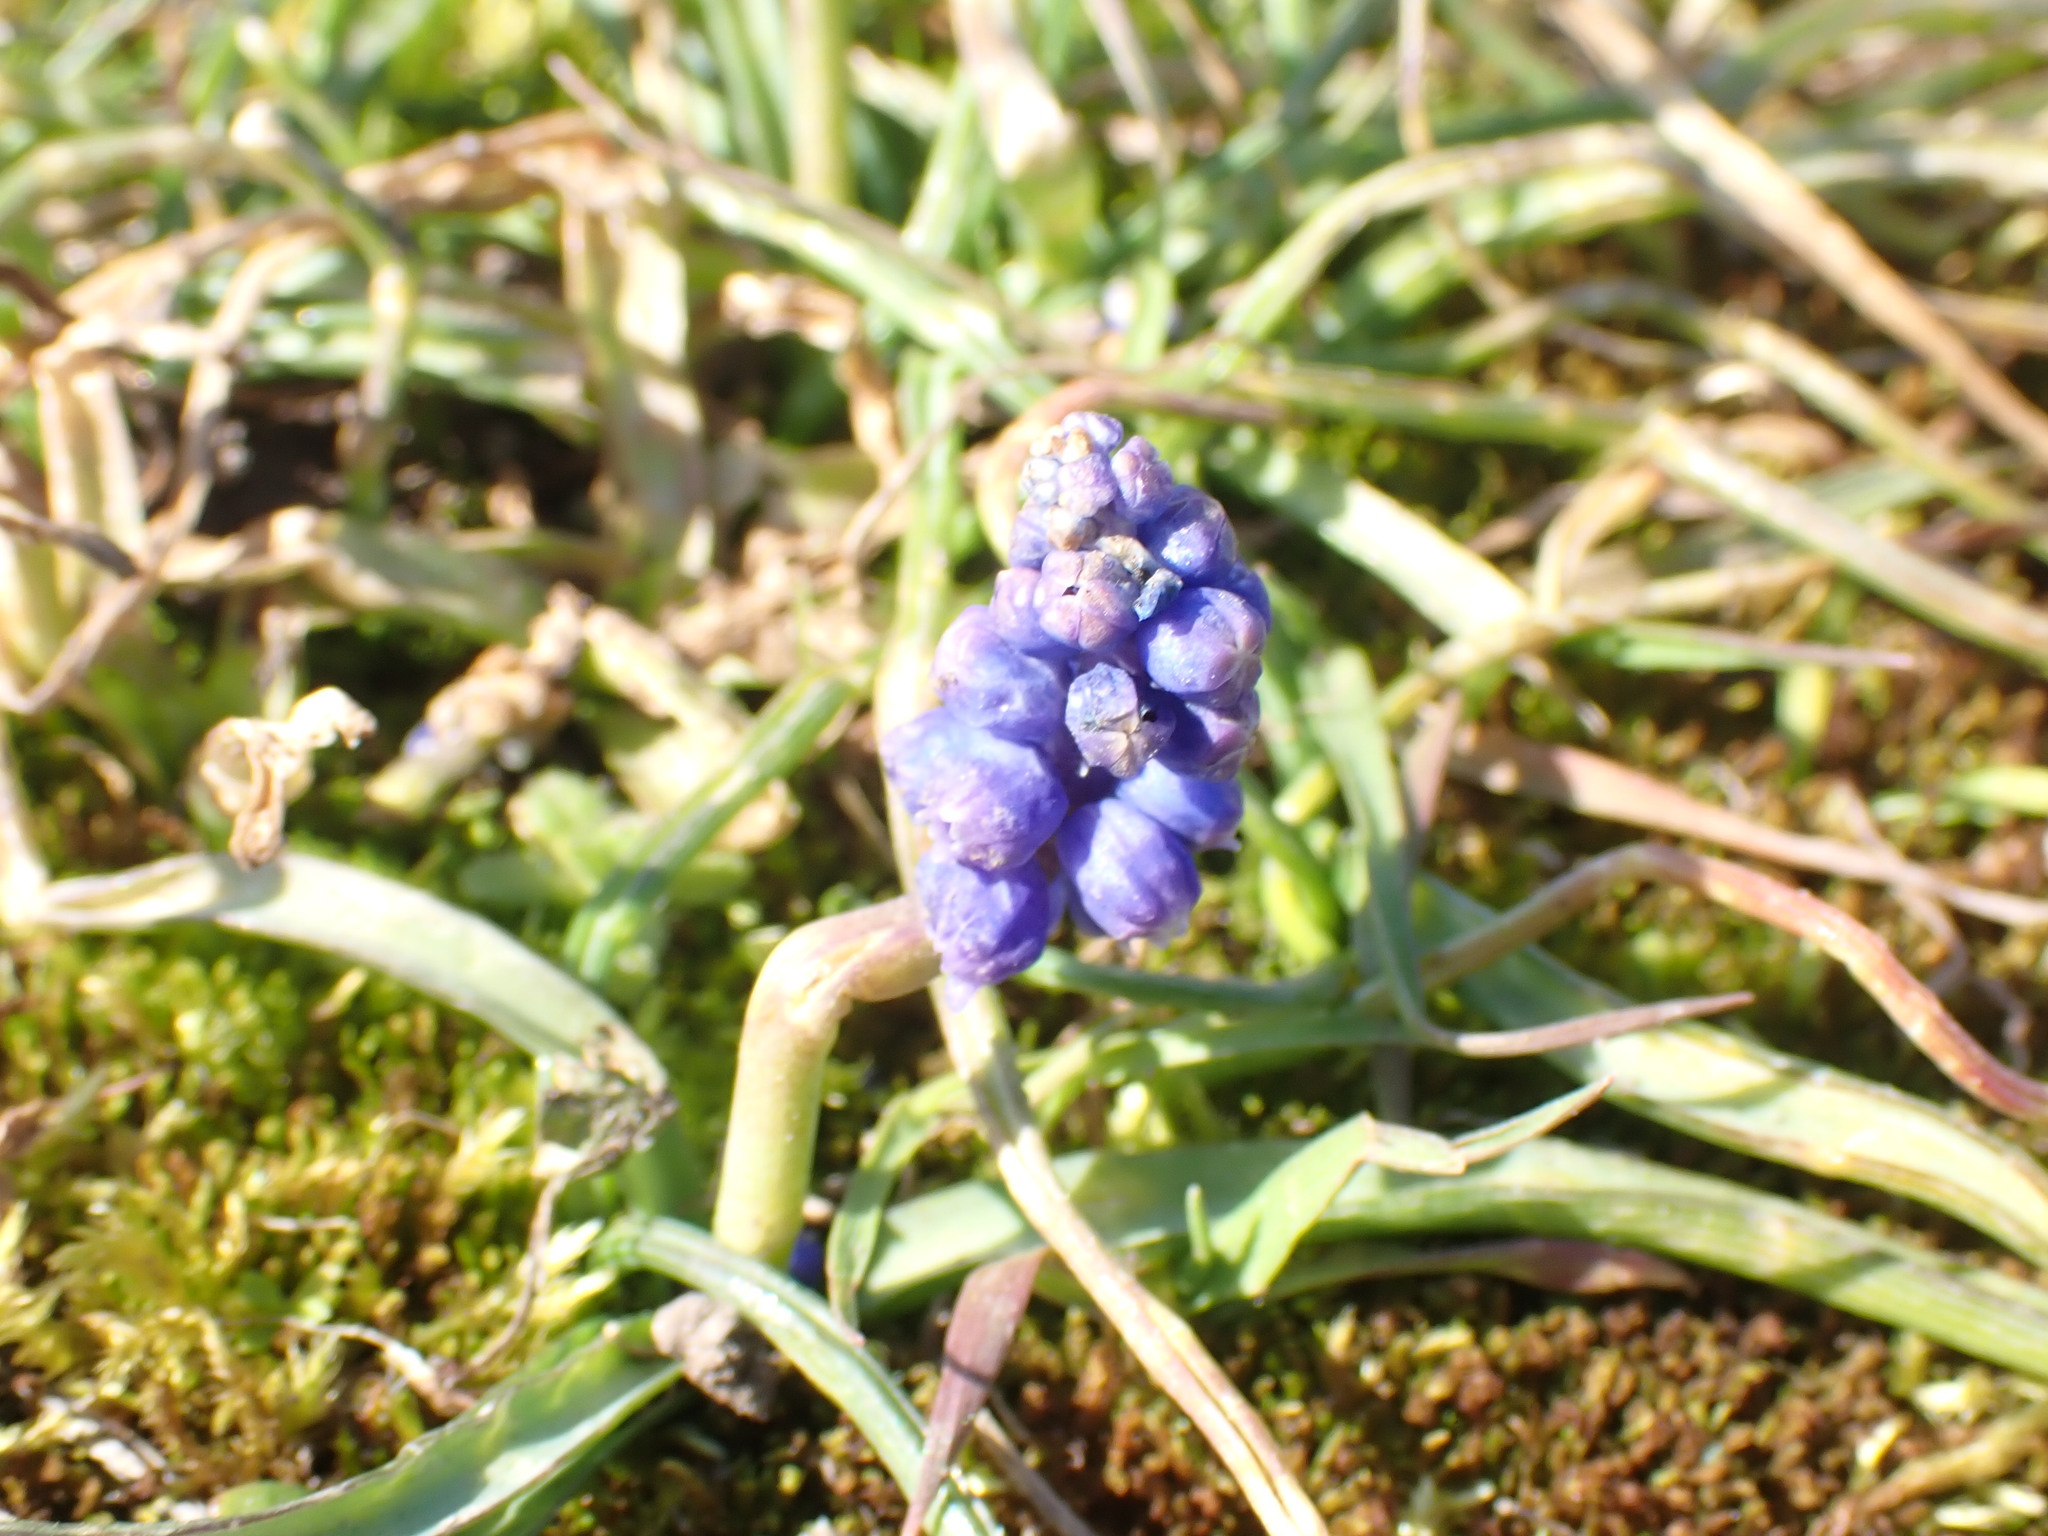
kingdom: Plantae
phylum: Tracheophyta
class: Liliopsida
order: Asparagales
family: Asparagaceae
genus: Muscari
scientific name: Muscari armeniacum
